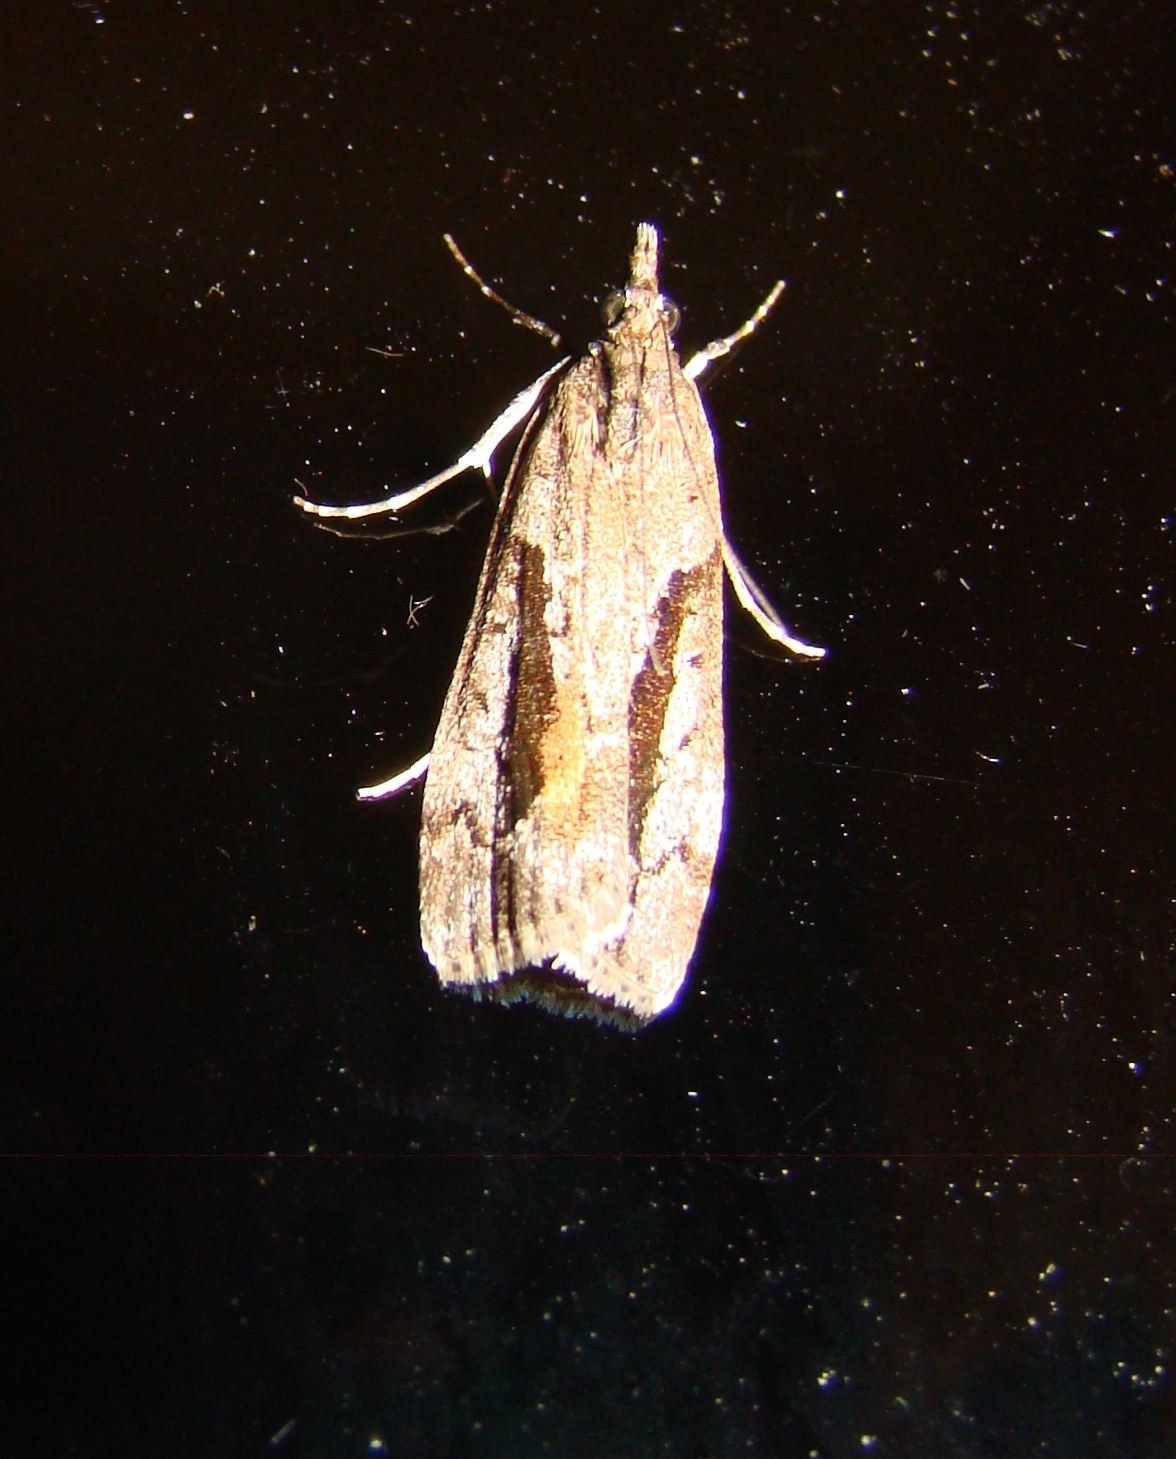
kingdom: Animalia
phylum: Arthropoda
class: Insecta
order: Lepidoptera
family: Crambidae
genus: Eudonia
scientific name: Eudonia submarginalis
